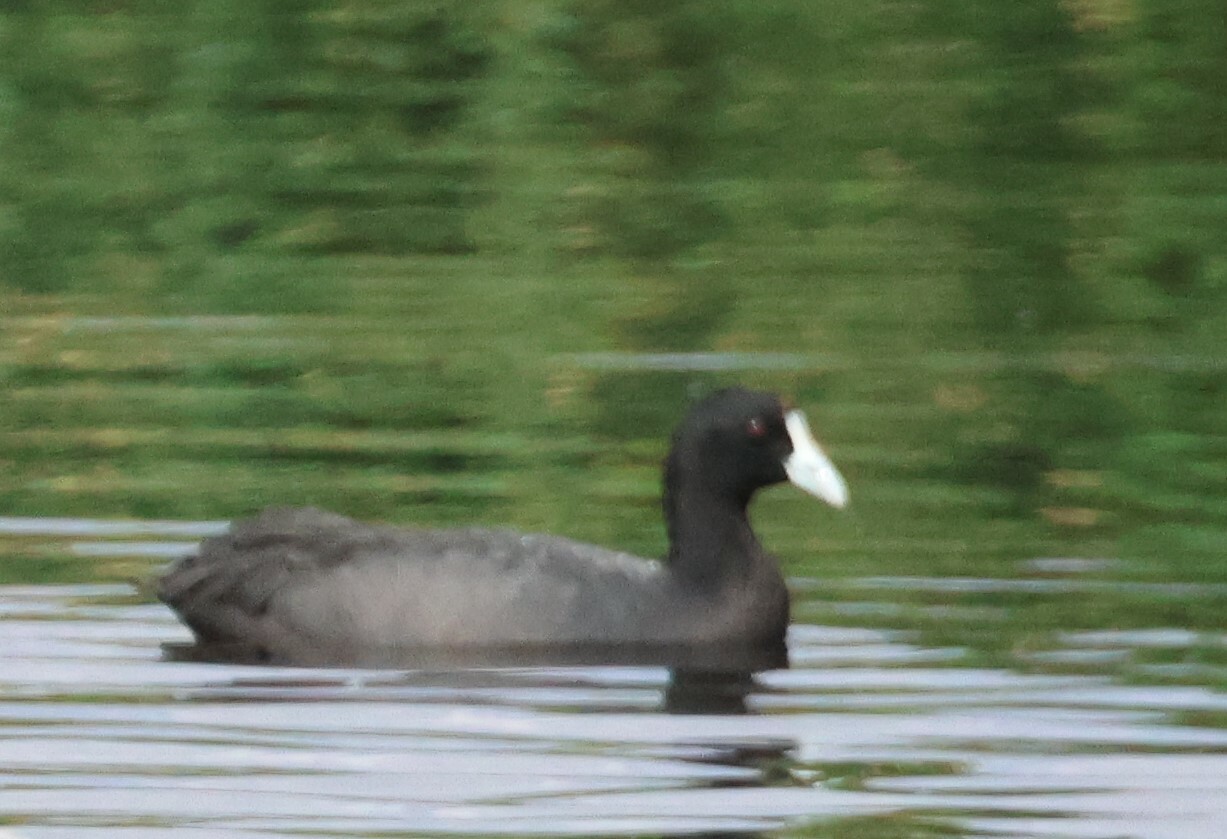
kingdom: Animalia
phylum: Chordata
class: Aves
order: Gruiformes
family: Rallidae
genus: Fulica
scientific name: Fulica cristata
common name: Red-knobbed coot
